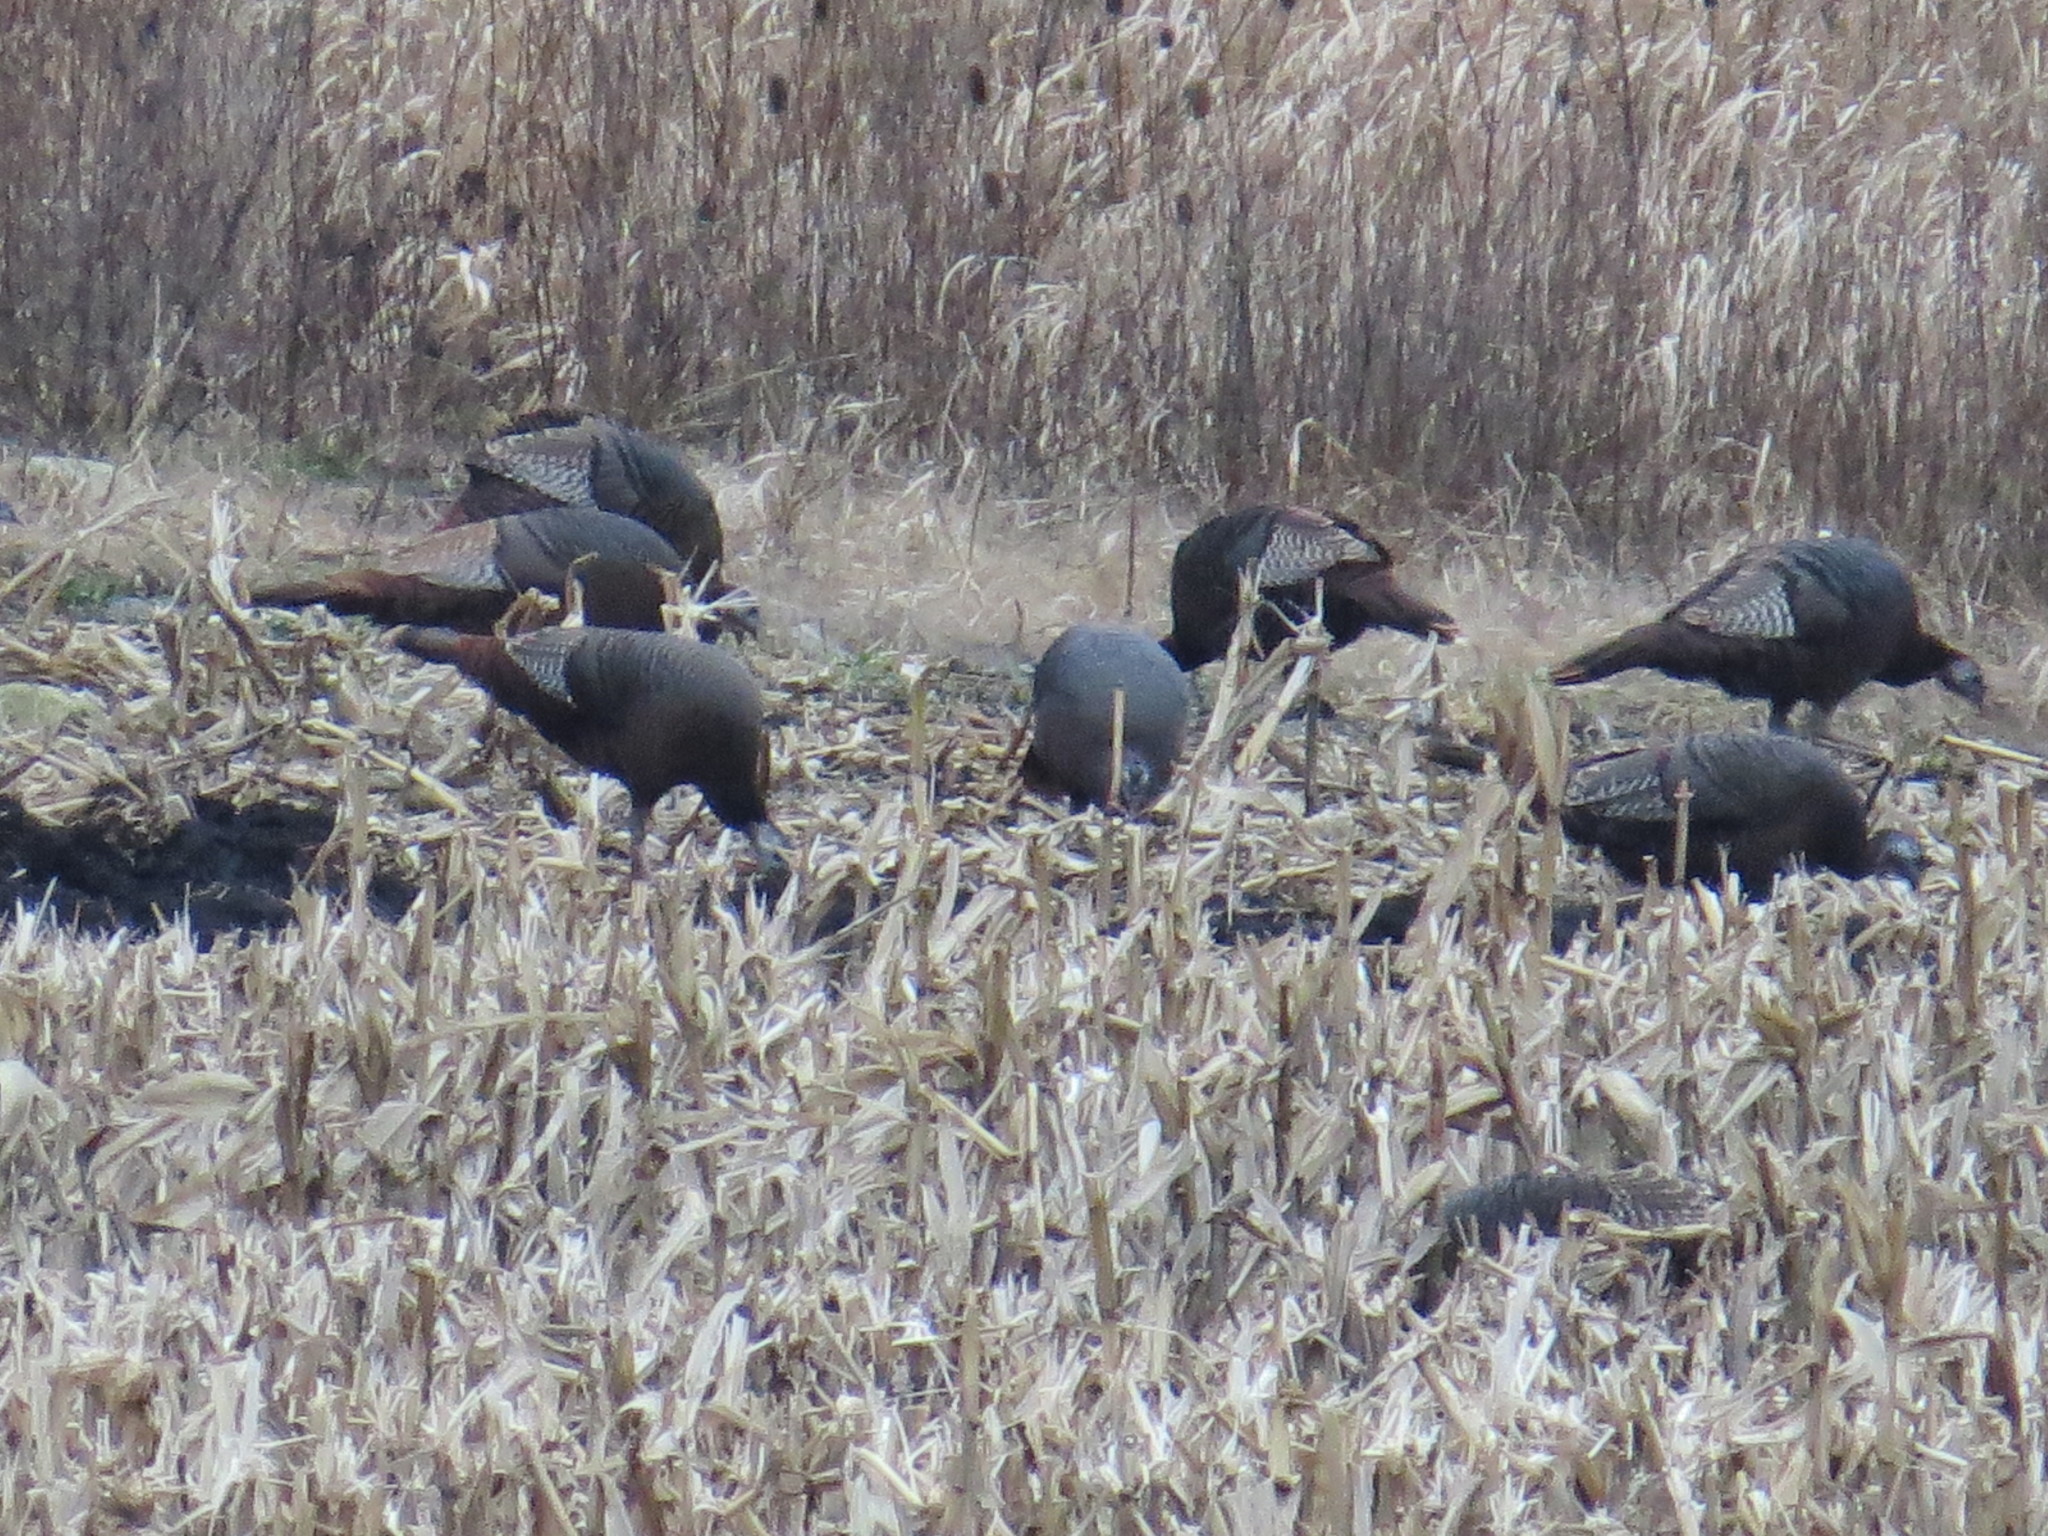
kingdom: Animalia
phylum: Chordata
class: Aves
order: Galliformes
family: Phasianidae
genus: Meleagris
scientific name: Meleagris gallopavo
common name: Wild turkey
